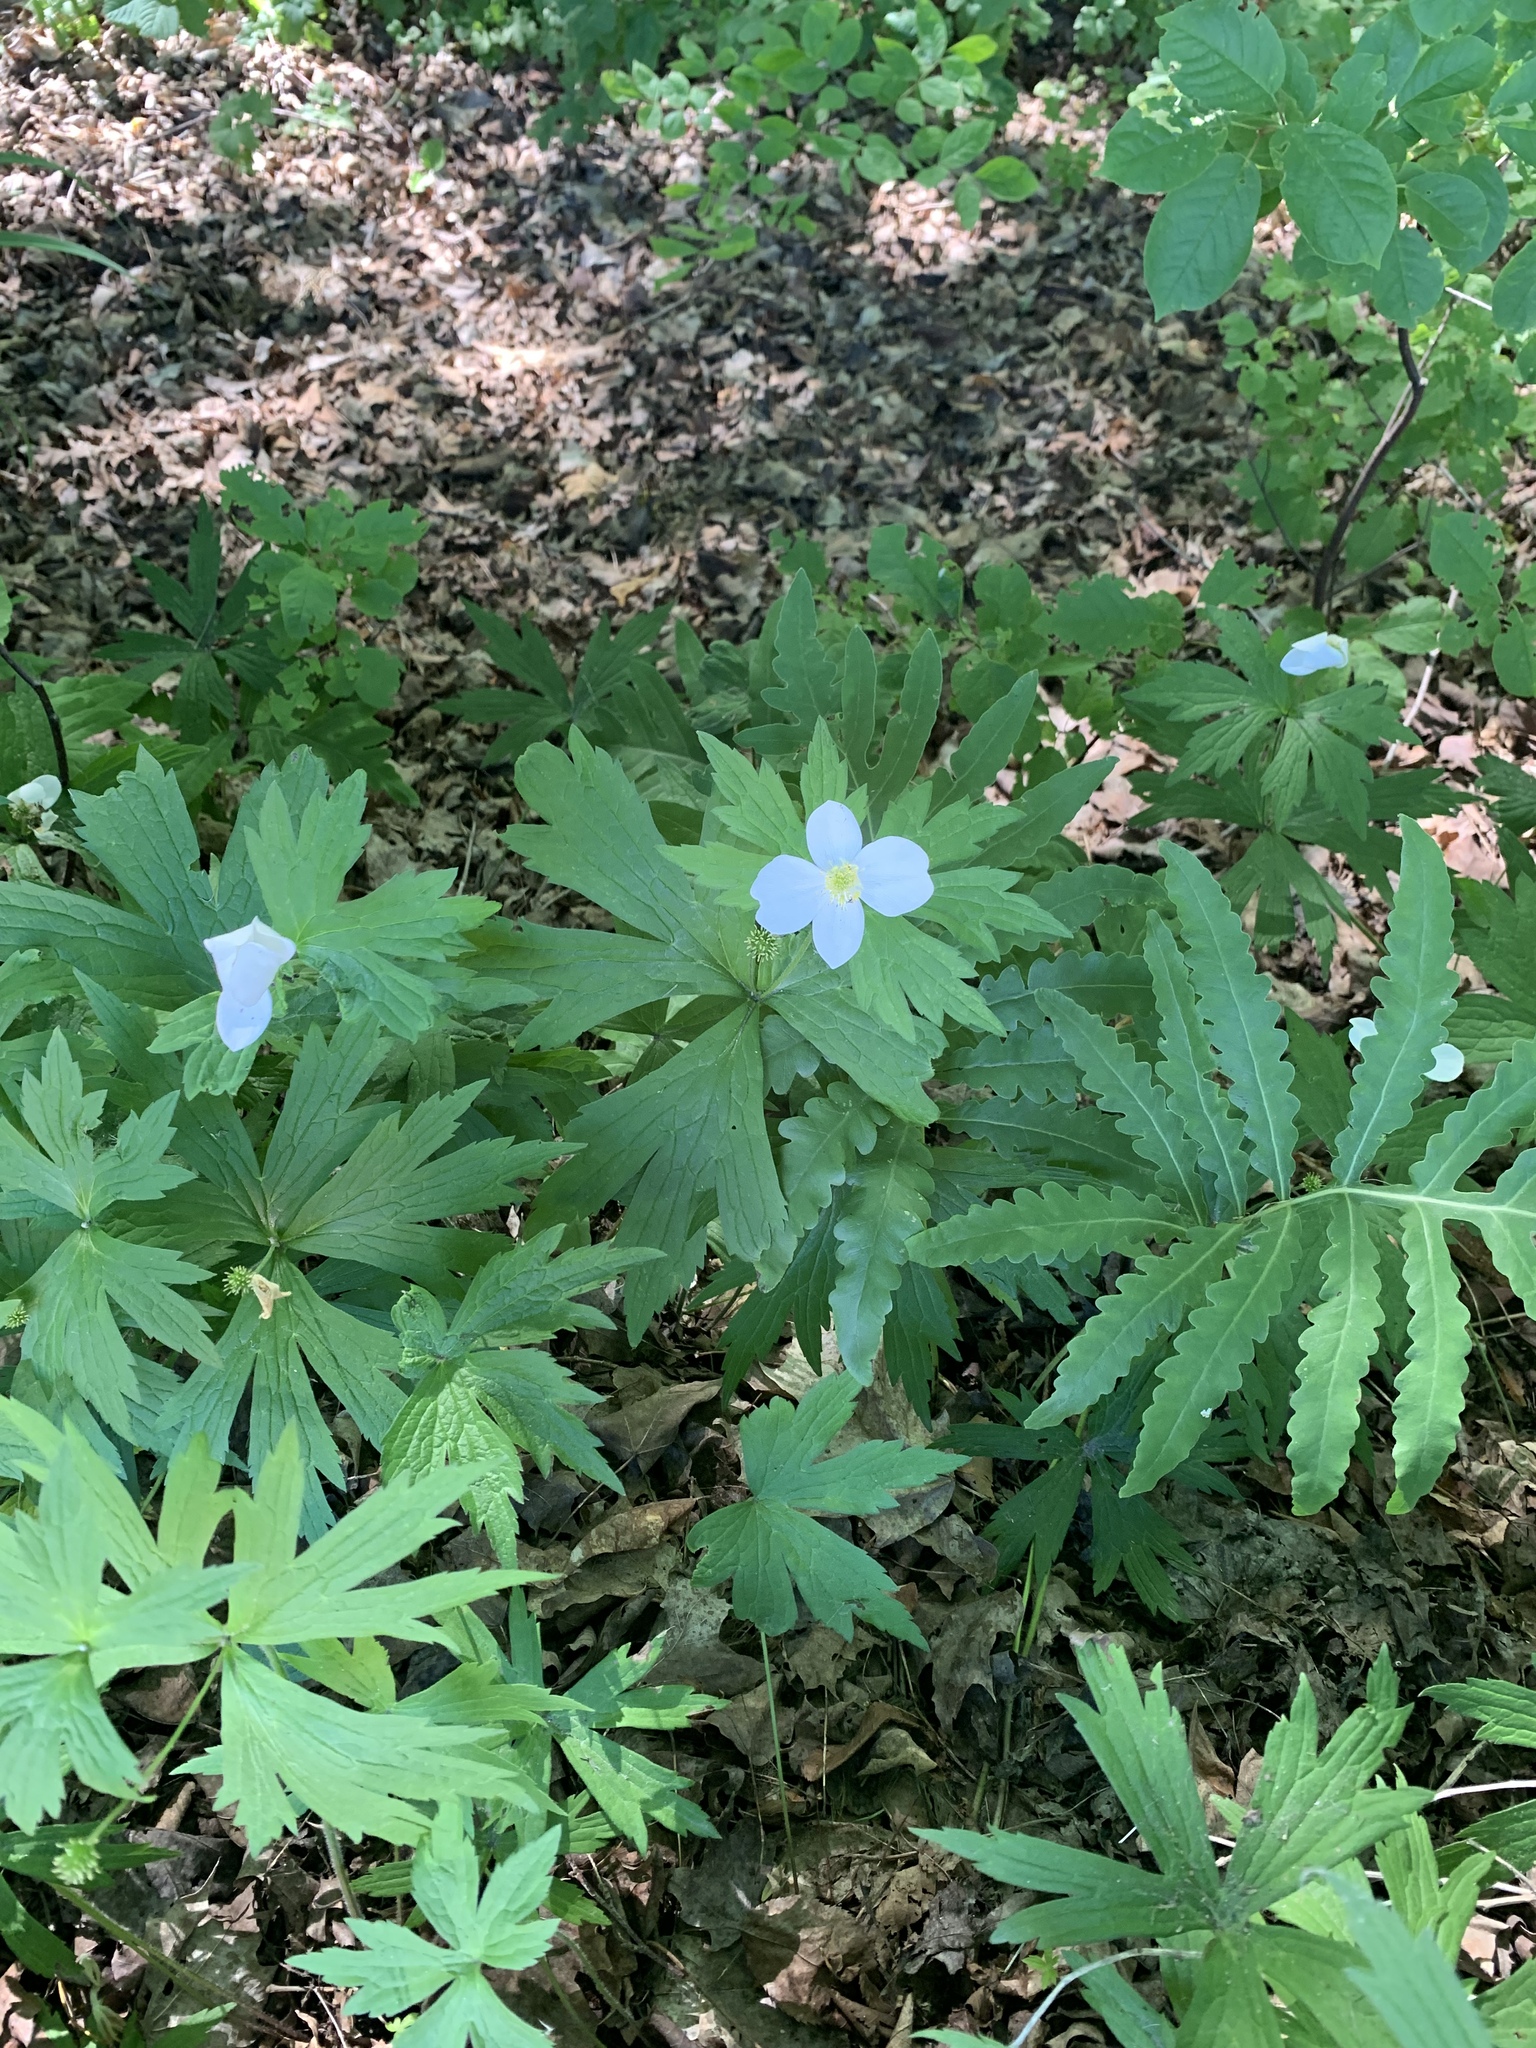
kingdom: Plantae
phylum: Tracheophyta
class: Magnoliopsida
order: Ranunculales
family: Ranunculaceae
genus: Anemonastrum
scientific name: Anemonastrum canadense
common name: Canada anemone
